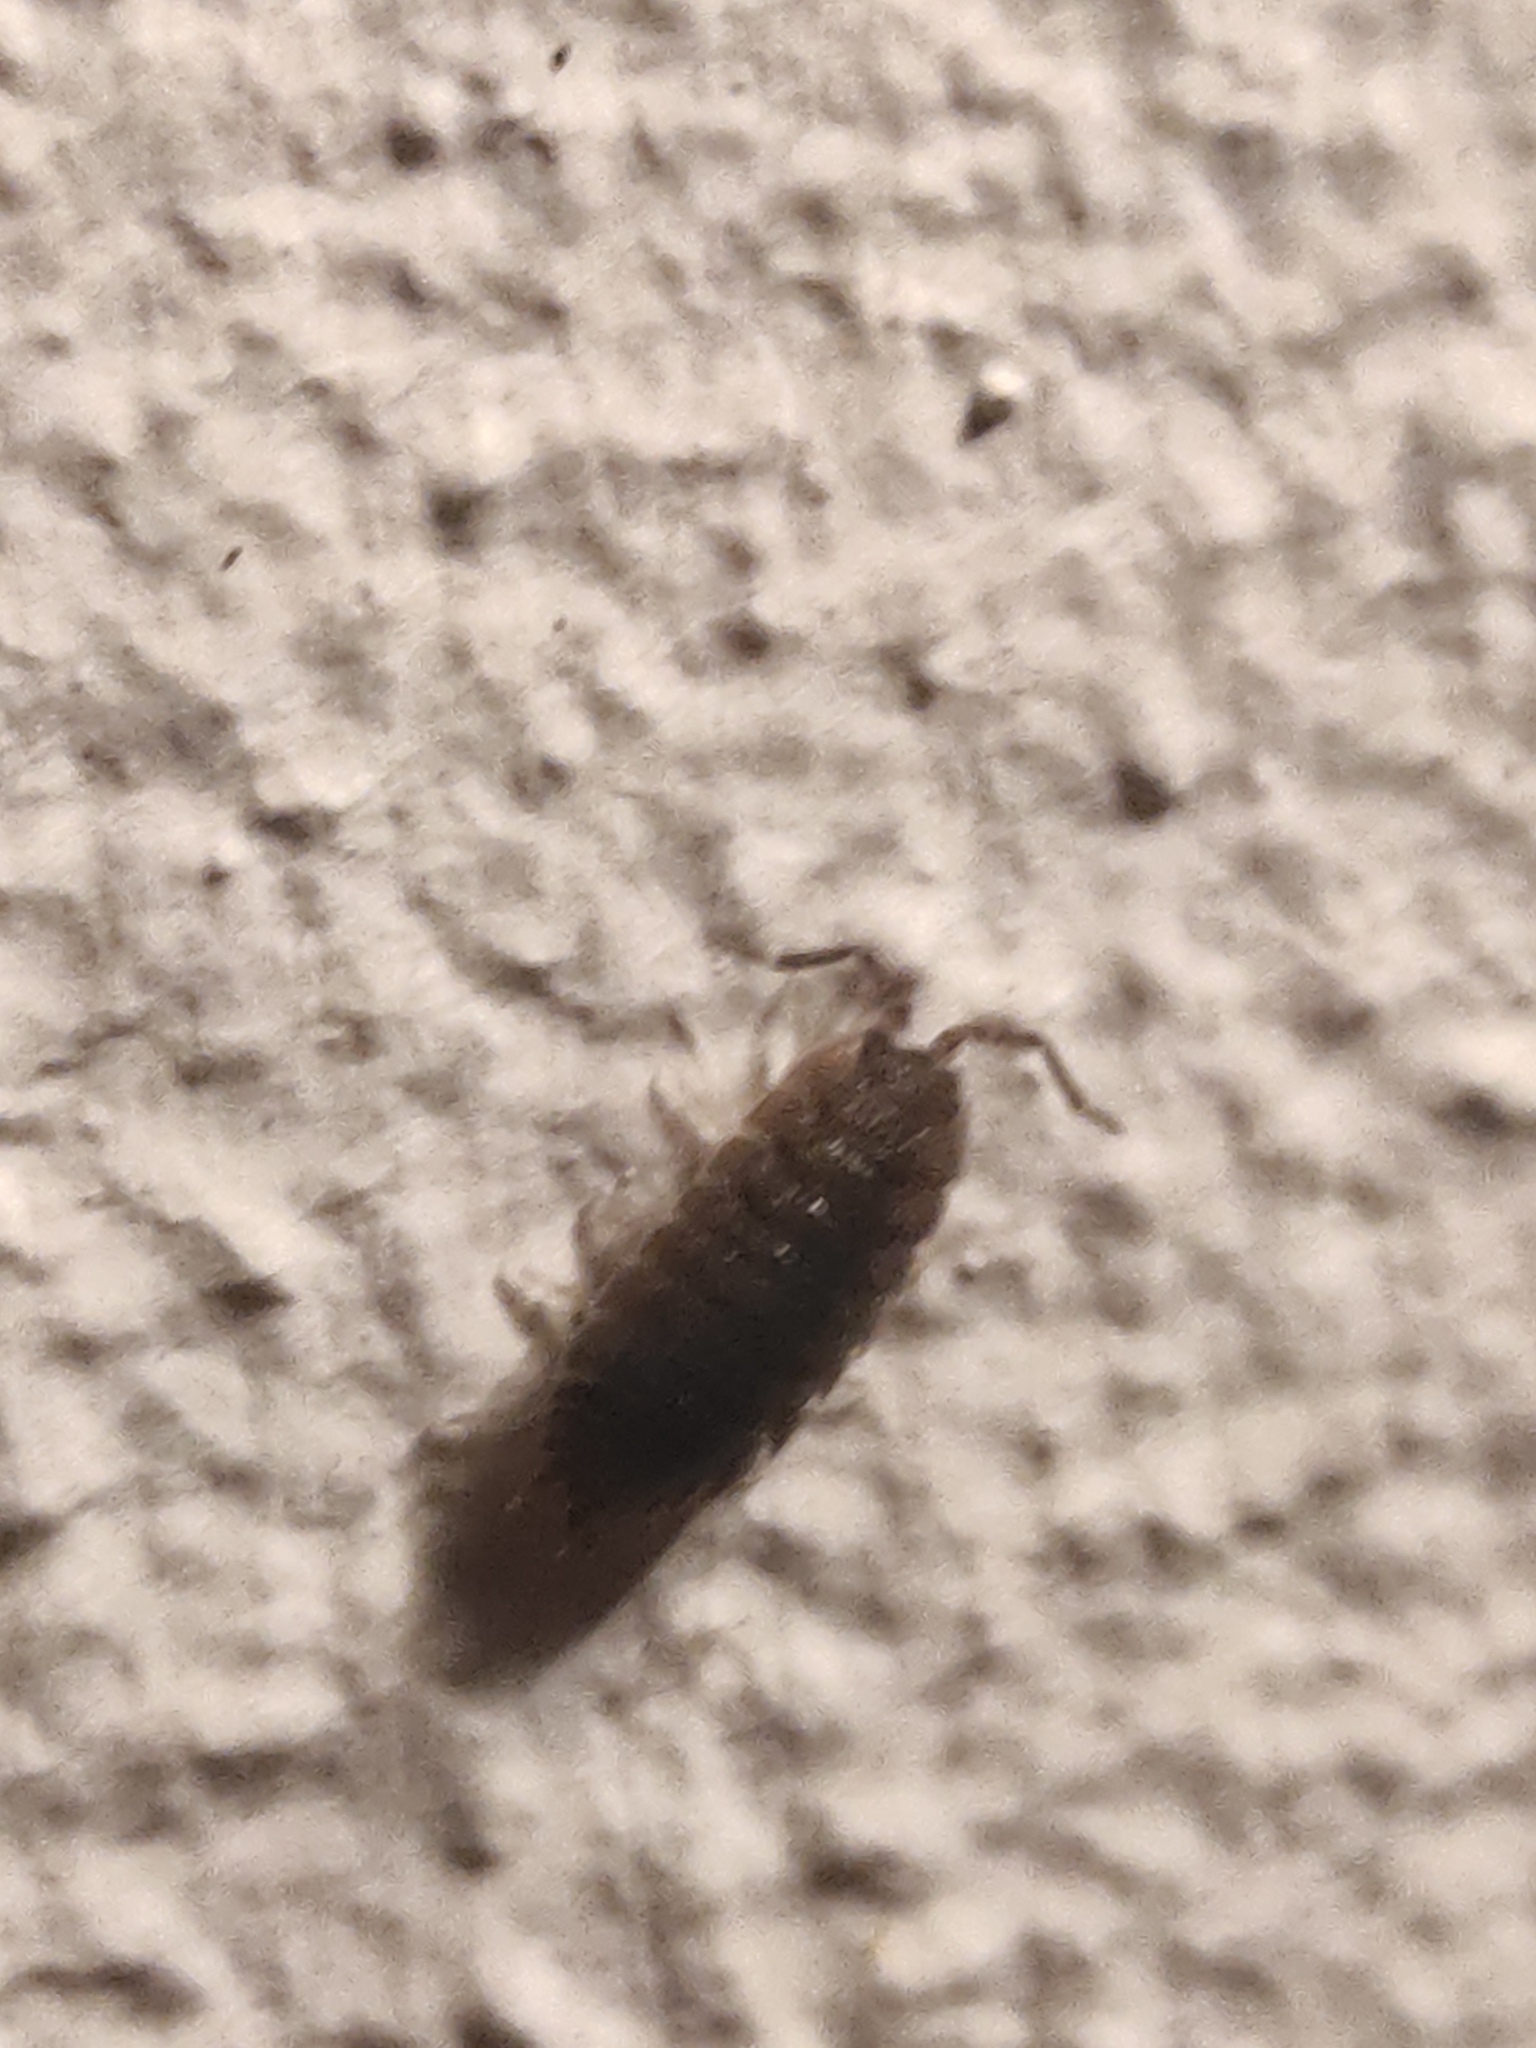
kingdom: Animalia
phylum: Arthropoda
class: Malacostraca
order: Isopoda
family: Porcellionidae
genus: Porcellio
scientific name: Porcellio scaber
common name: Common rough woodlouse
